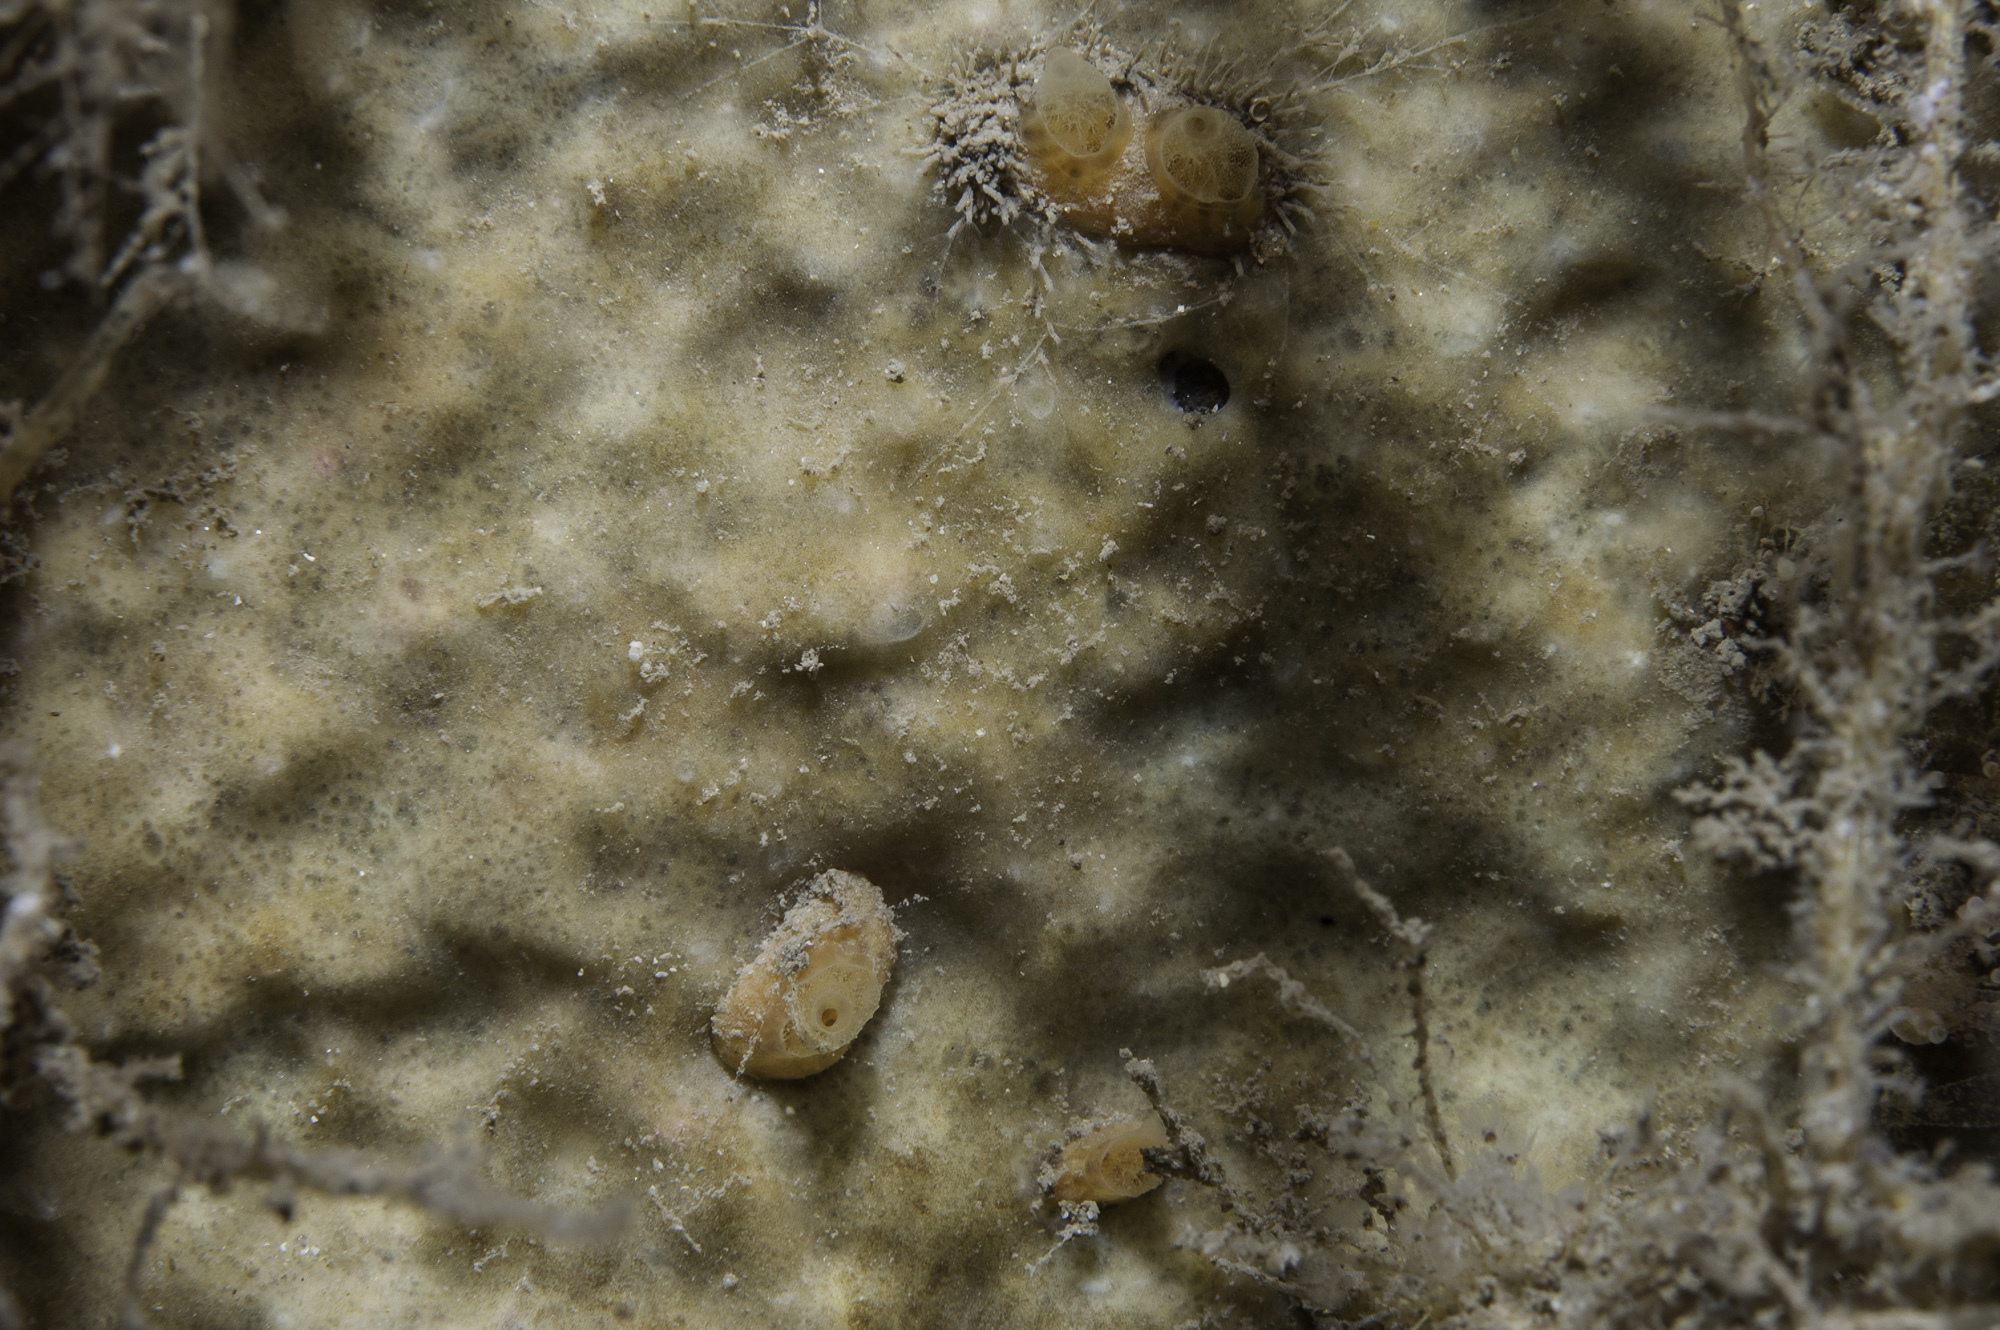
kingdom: Animalia
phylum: Porifera
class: Demospongiae
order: Poecilosclerida
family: Hymedesmiidae
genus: Hymedesmia
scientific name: Hymedesmia primitiva
